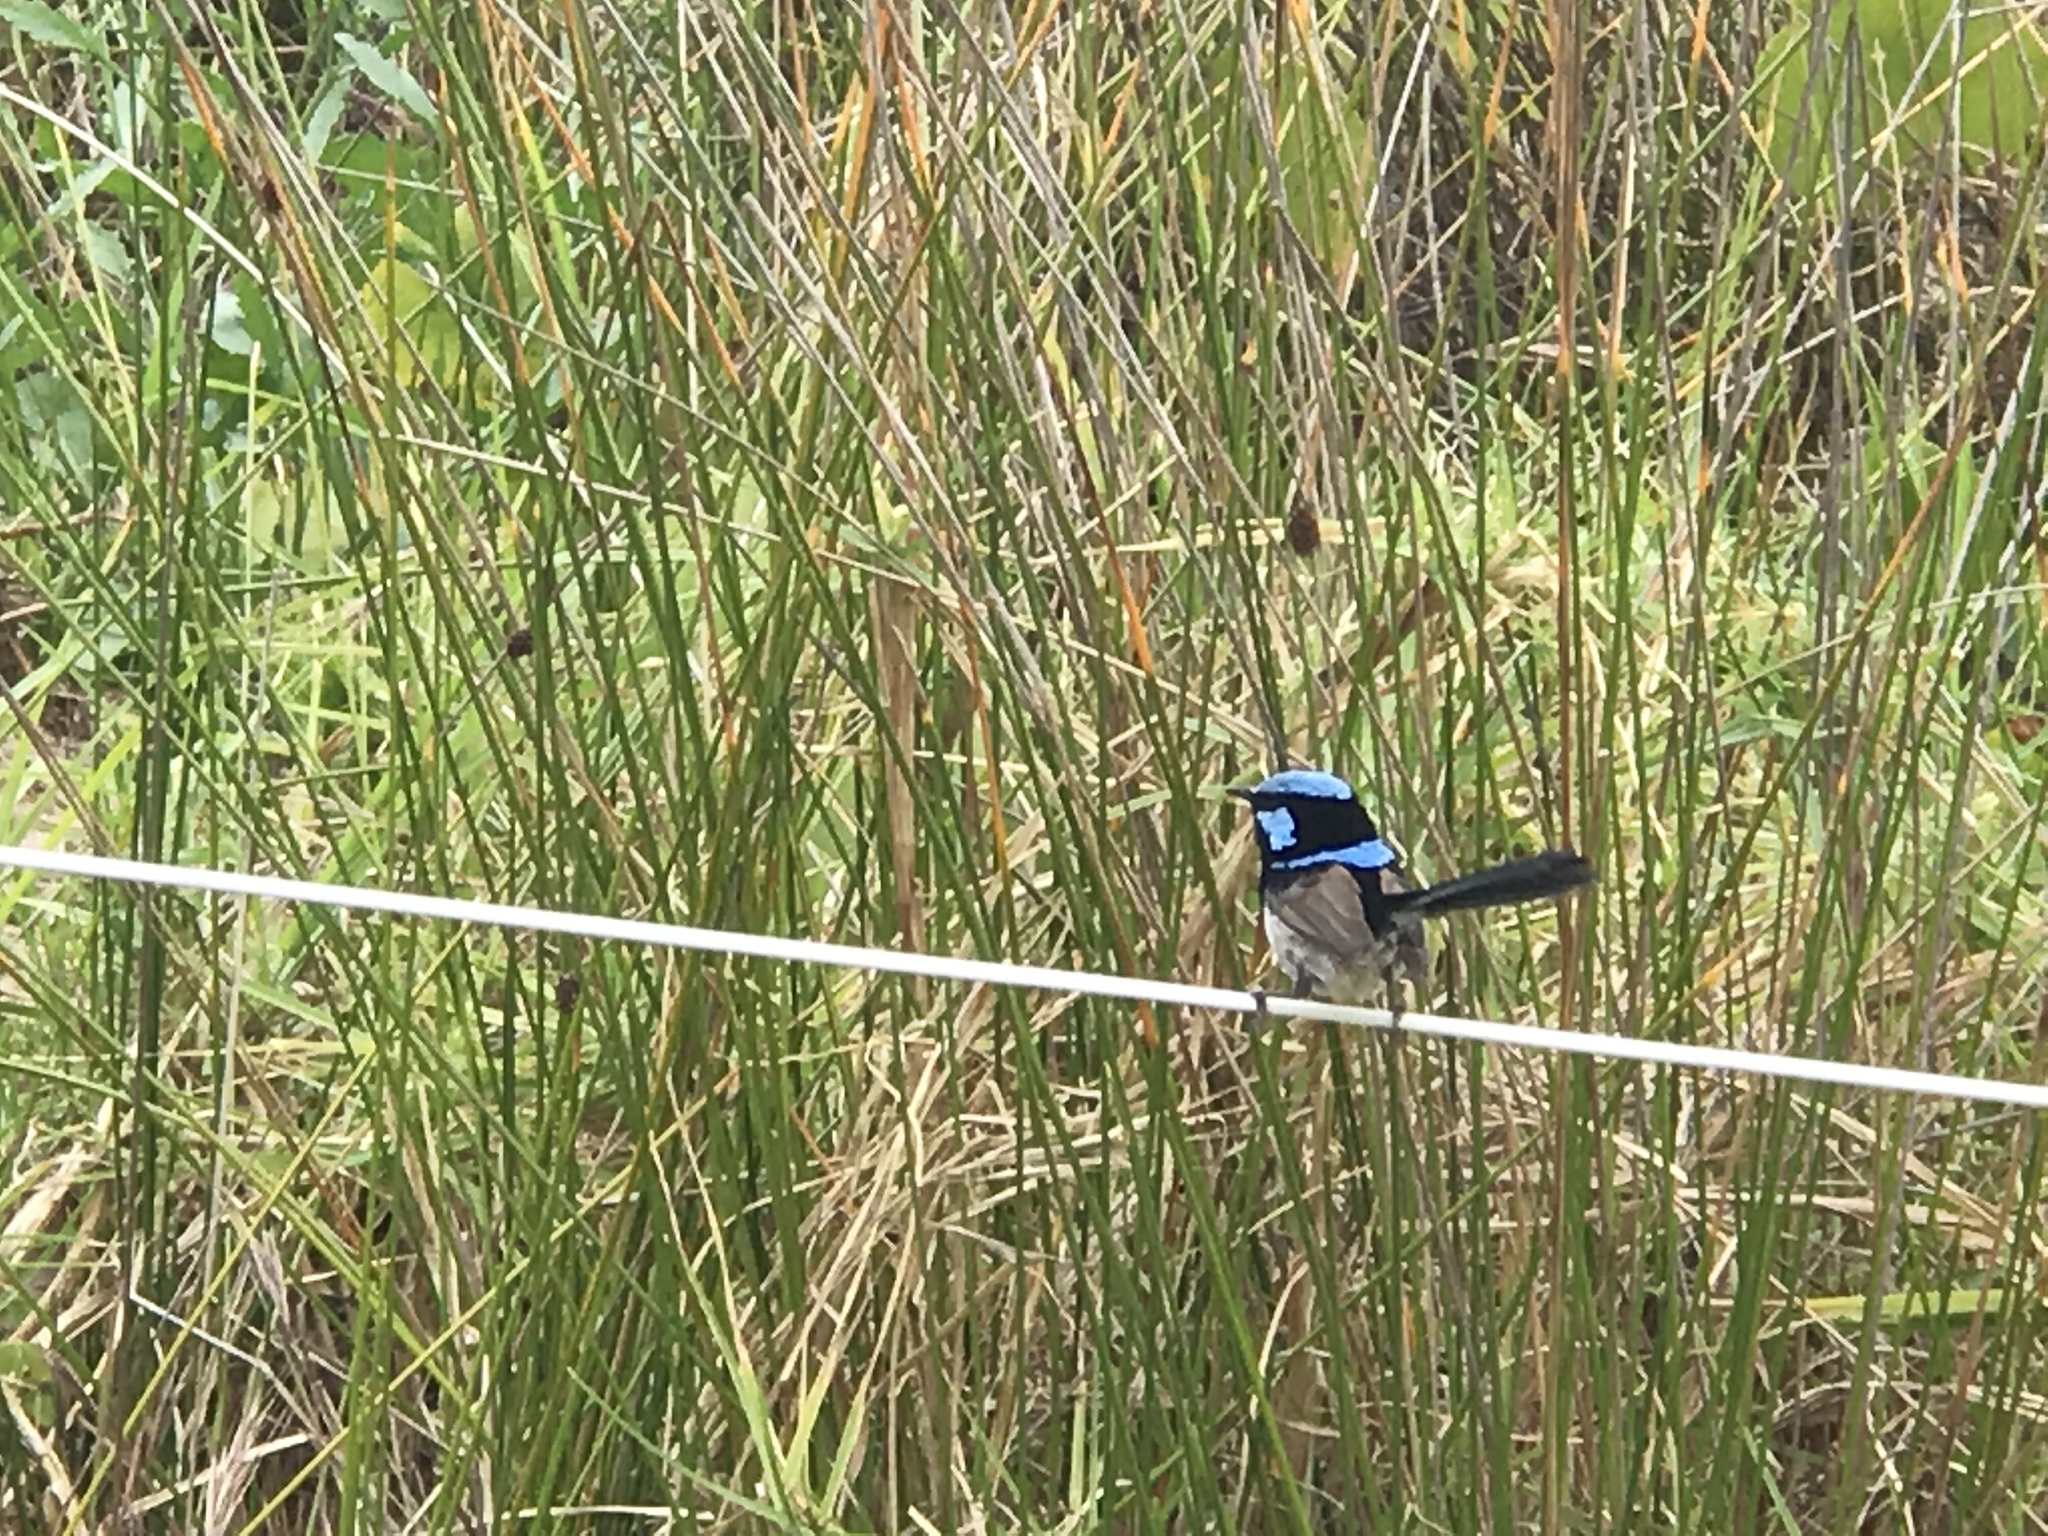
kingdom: Animalia
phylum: Chordata
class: Aves
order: Passeriformes
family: Maluridae
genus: Malurus
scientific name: Malurus cyaneus
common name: Superb fairywren
